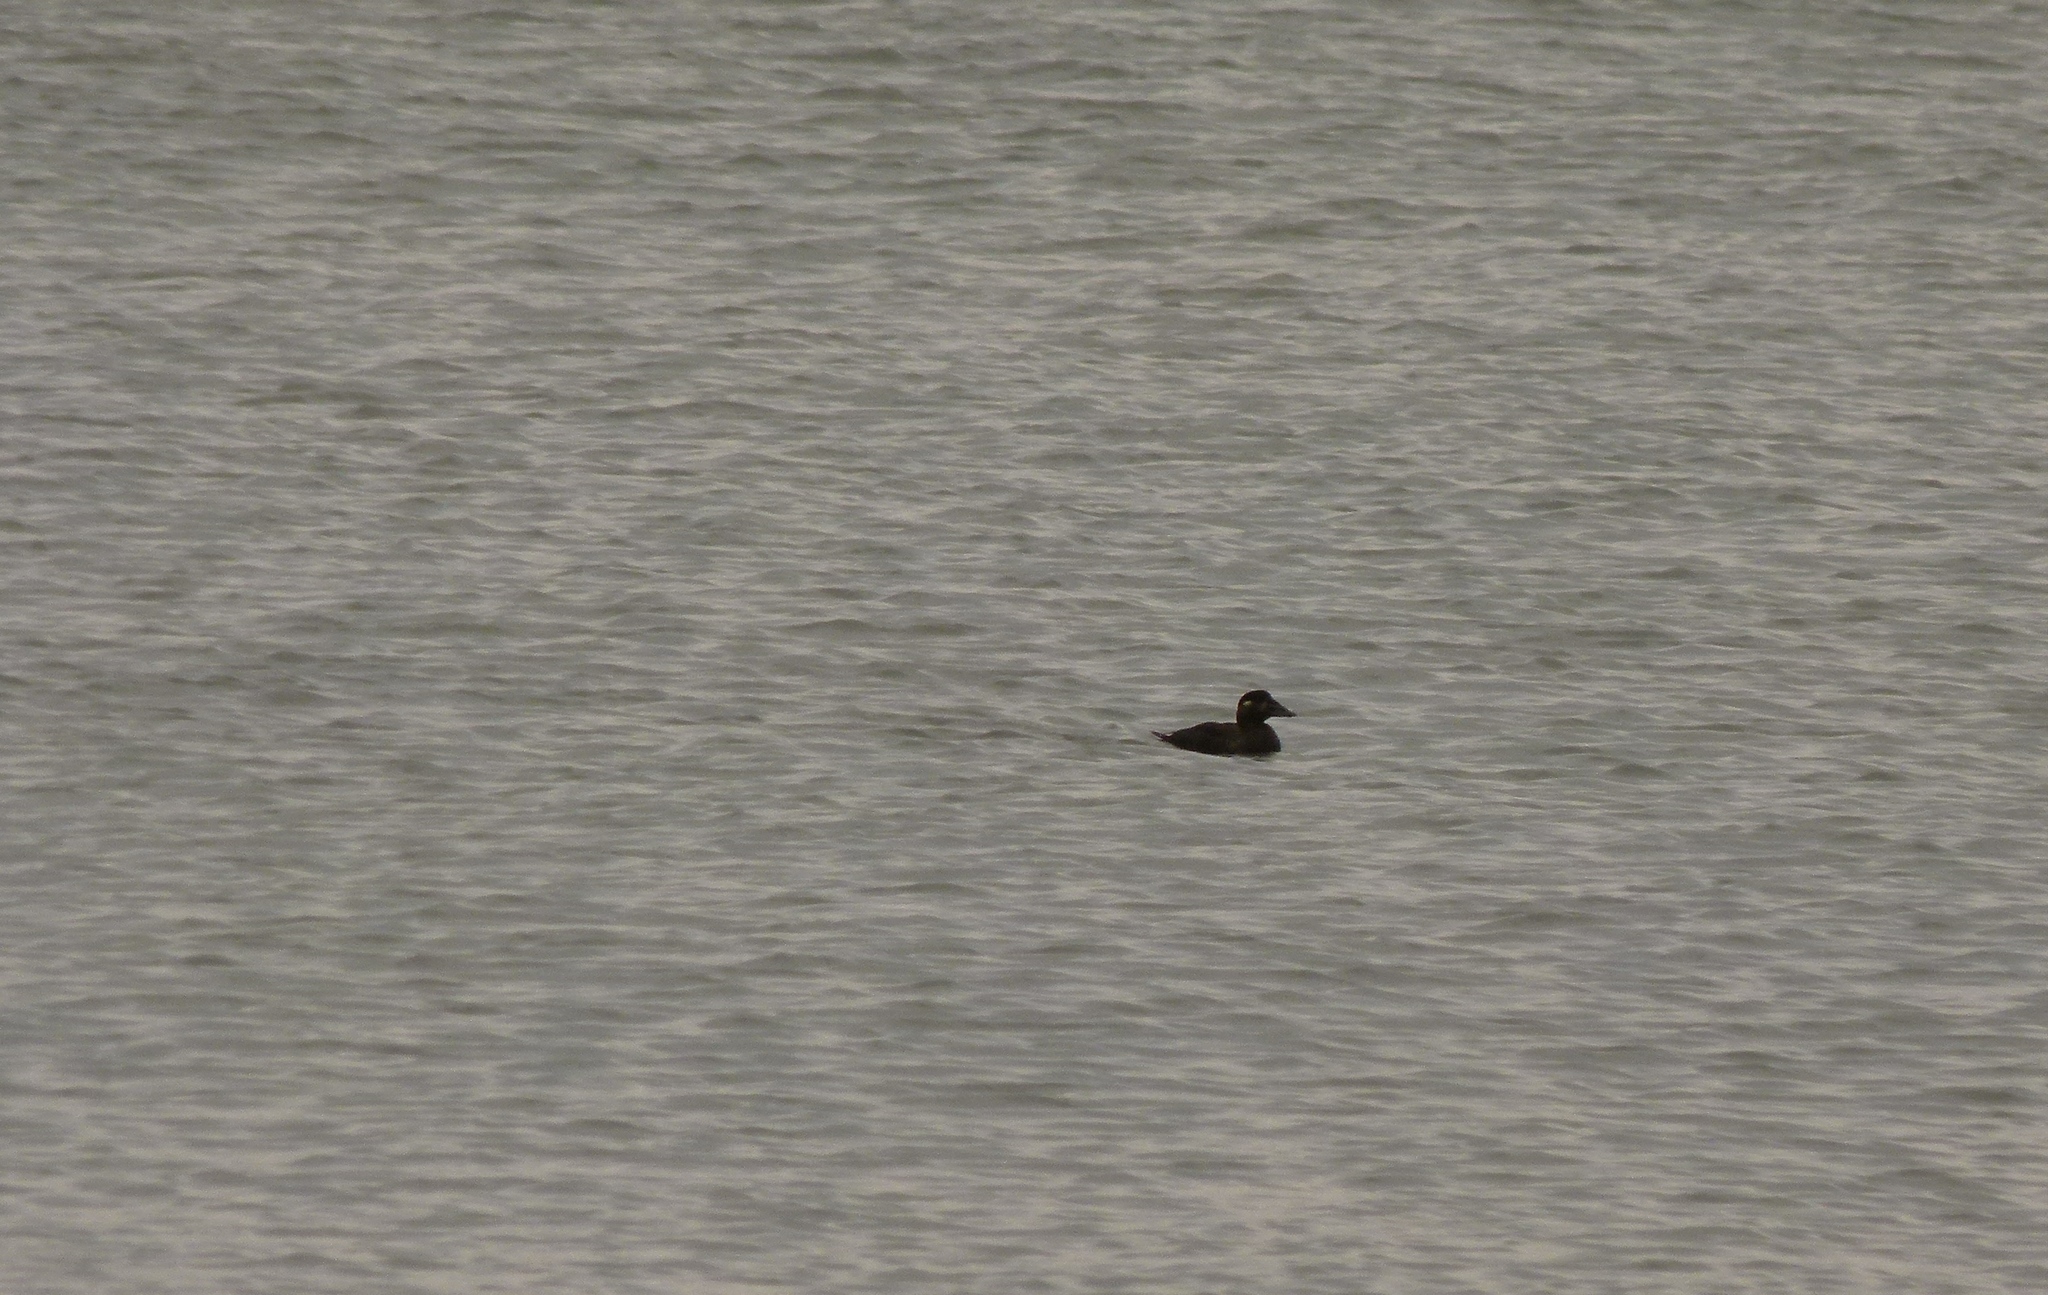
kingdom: Animalia
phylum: Chordata
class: Aves
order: Anseriformes
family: Anatidae
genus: Melanitta
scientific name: Melanitta perspicillata
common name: Surf scoter
